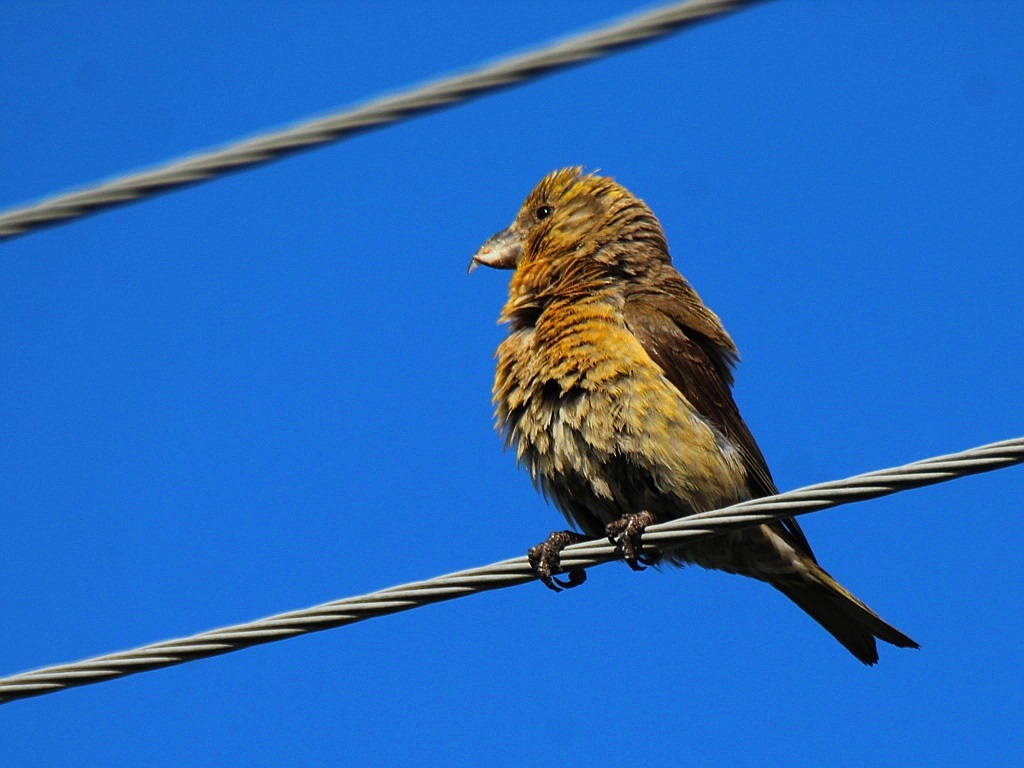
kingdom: Animalia
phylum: Chordata
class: Aves
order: Passeriformes
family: Fringillidae
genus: Loxia
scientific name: Loxia curvirostra
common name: Red crossbill
